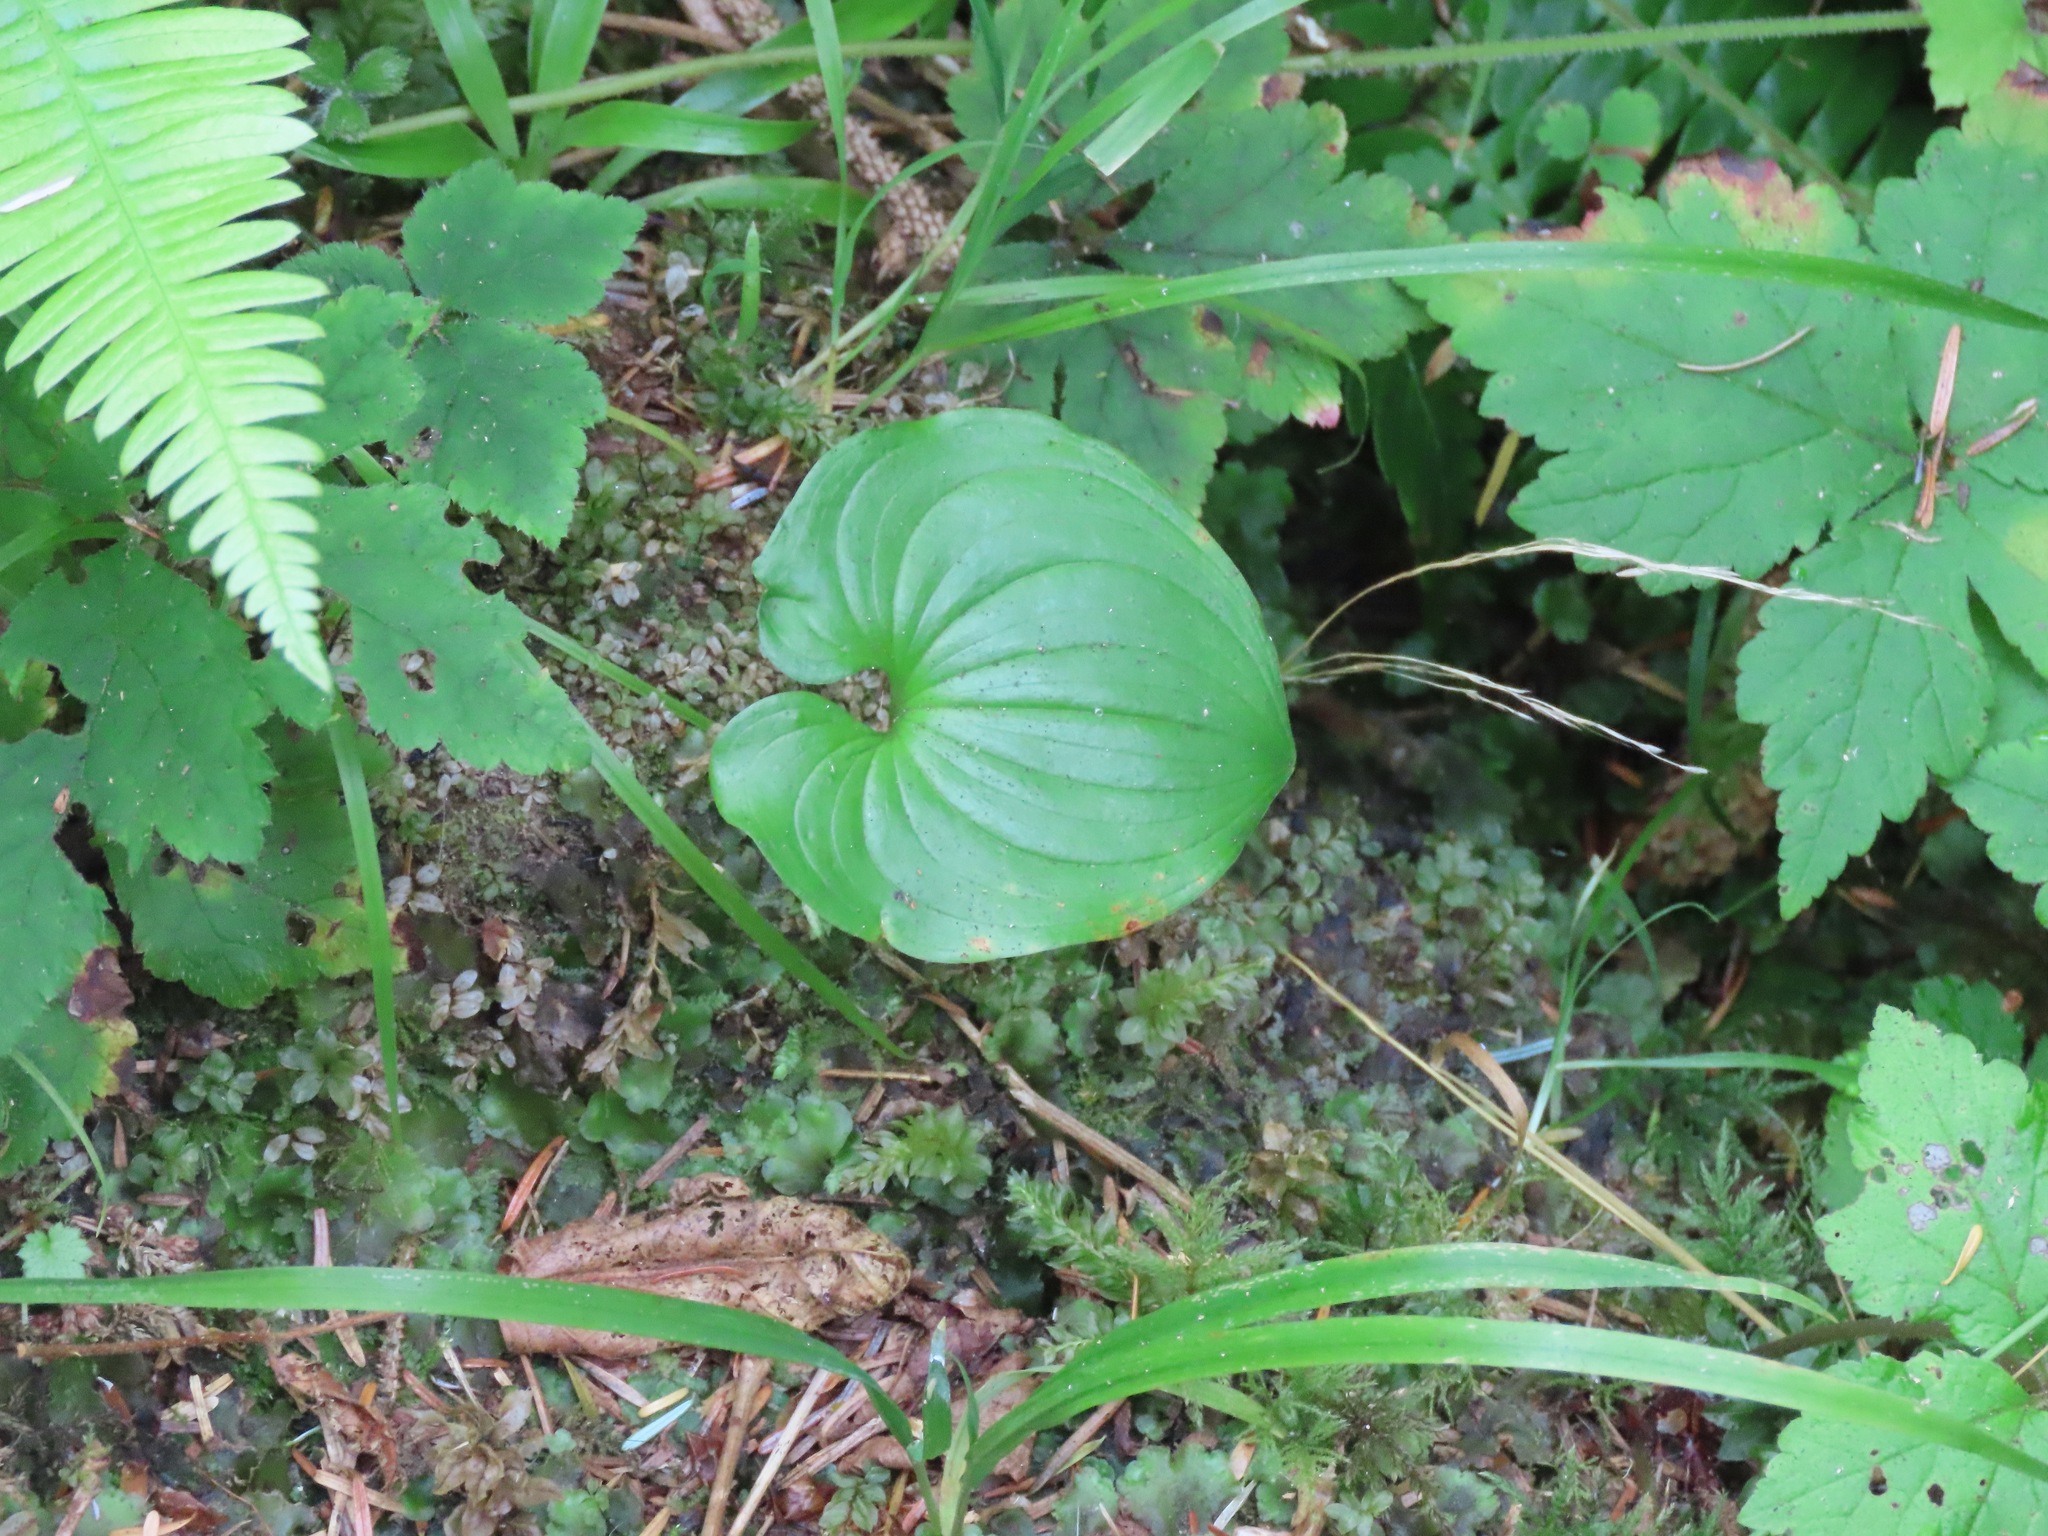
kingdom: Plantae
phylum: Tracheophyta
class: Liliopsida
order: Asparagales
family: Asparagaceae
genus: Maianthemum
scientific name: Maianthemum dilatatum
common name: False lily-of-the-valley
